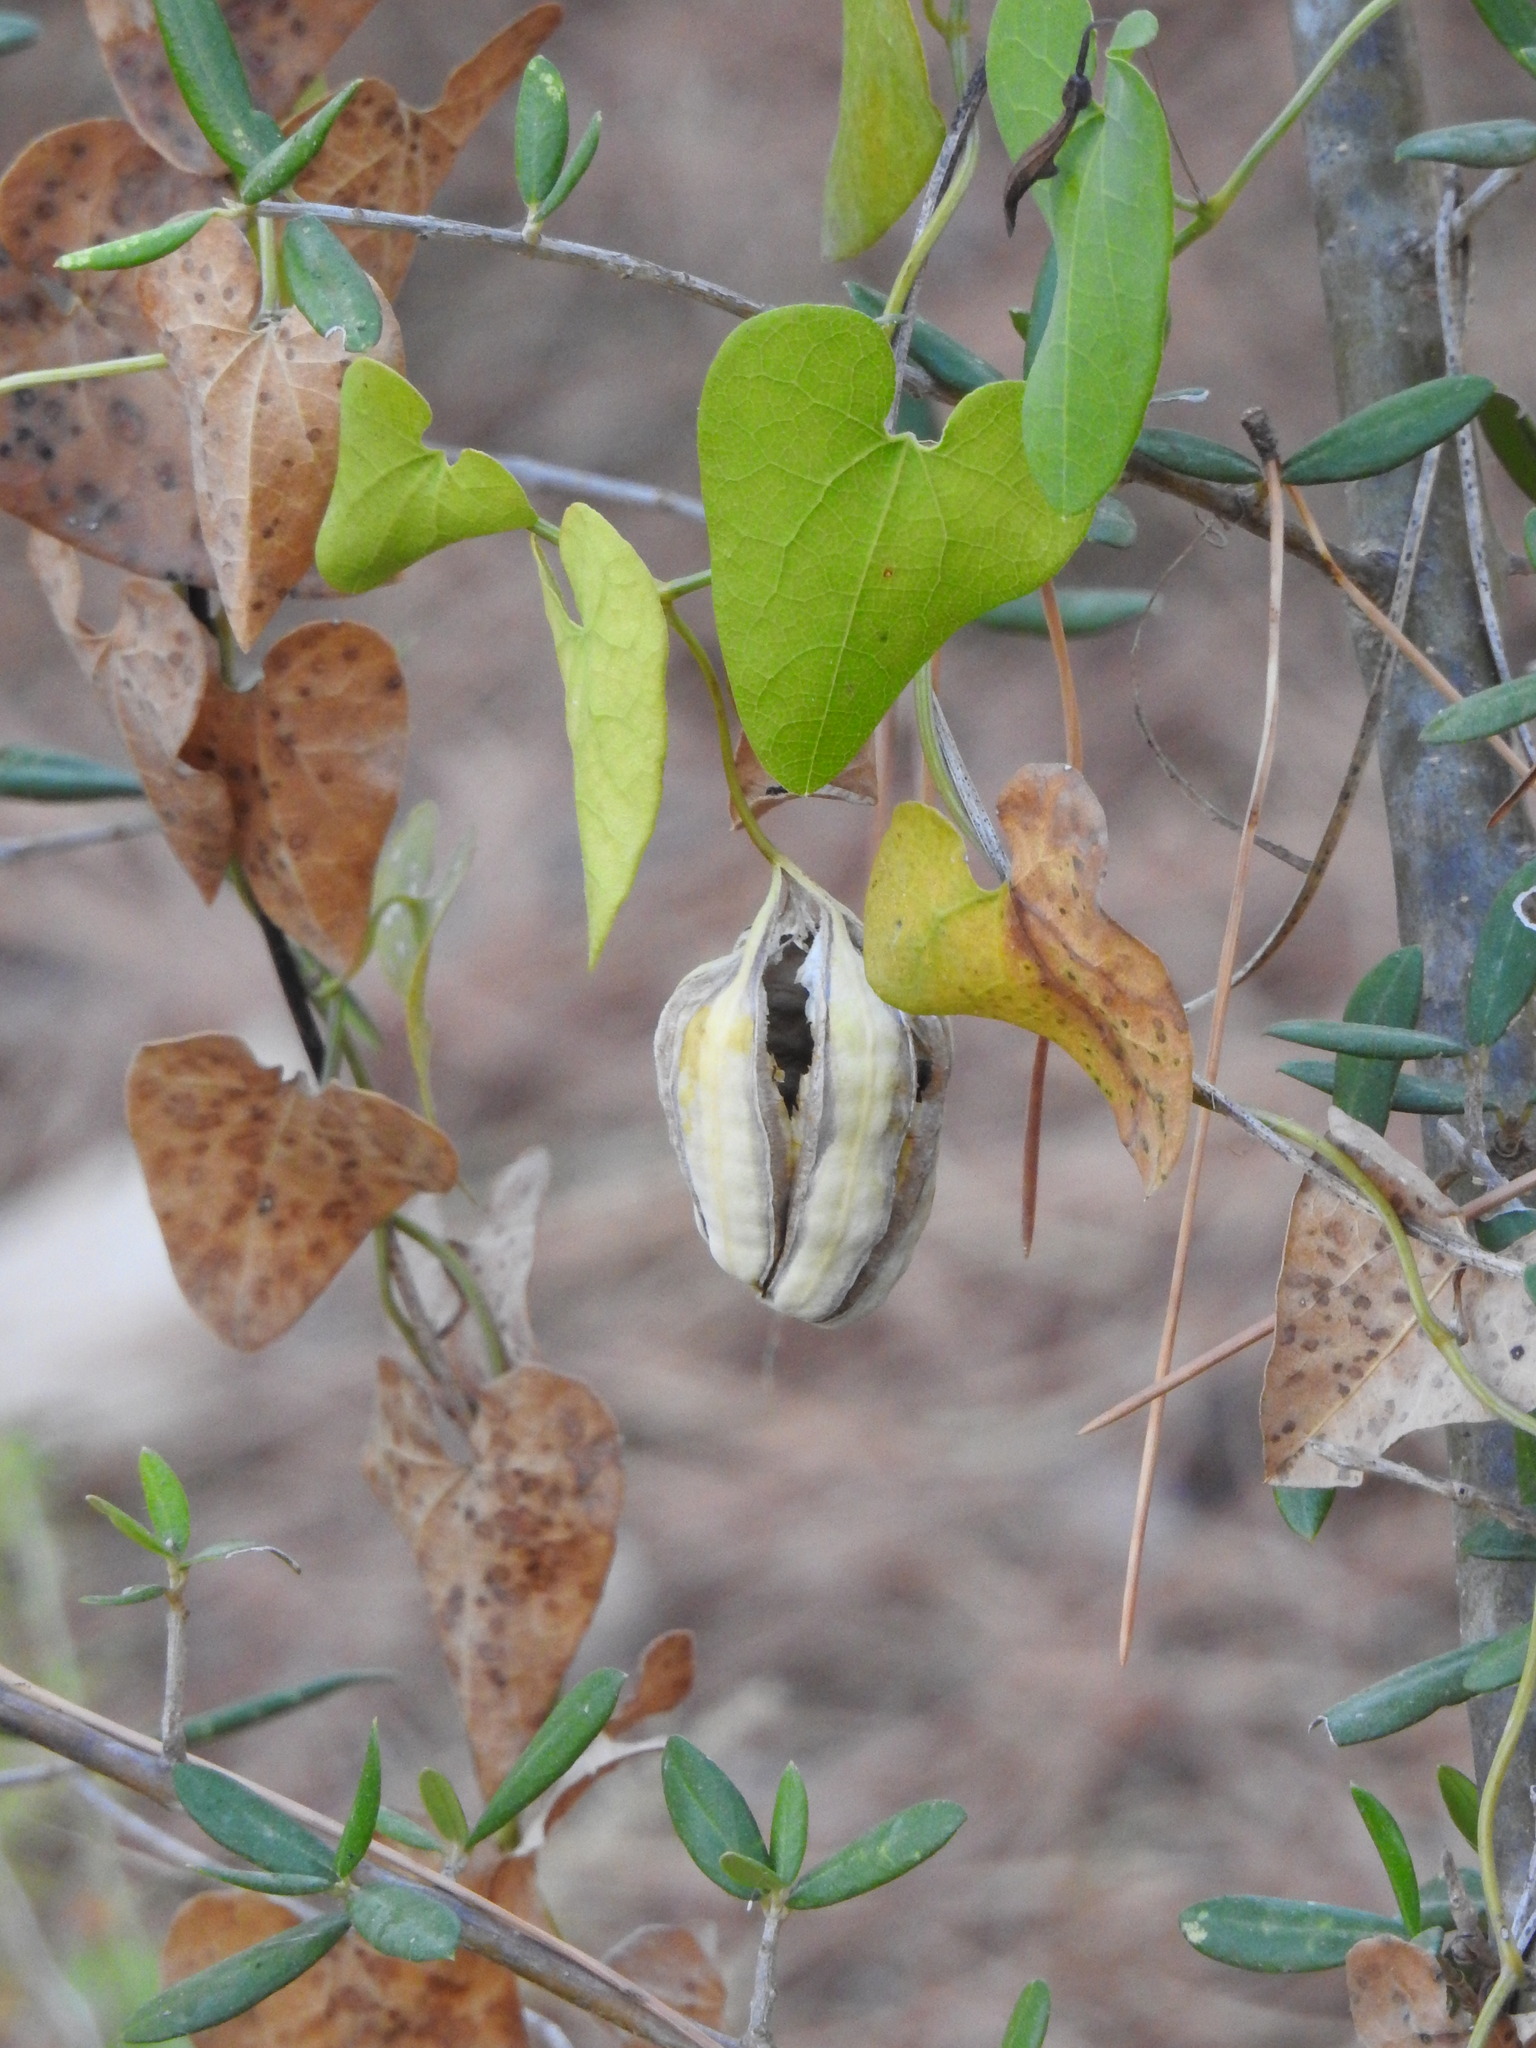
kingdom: Plantae
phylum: Tracheophyta
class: Magnoliopsida
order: Piperales
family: Aristolochiaceae
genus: Aristolochia
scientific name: Aristolochia baetica
